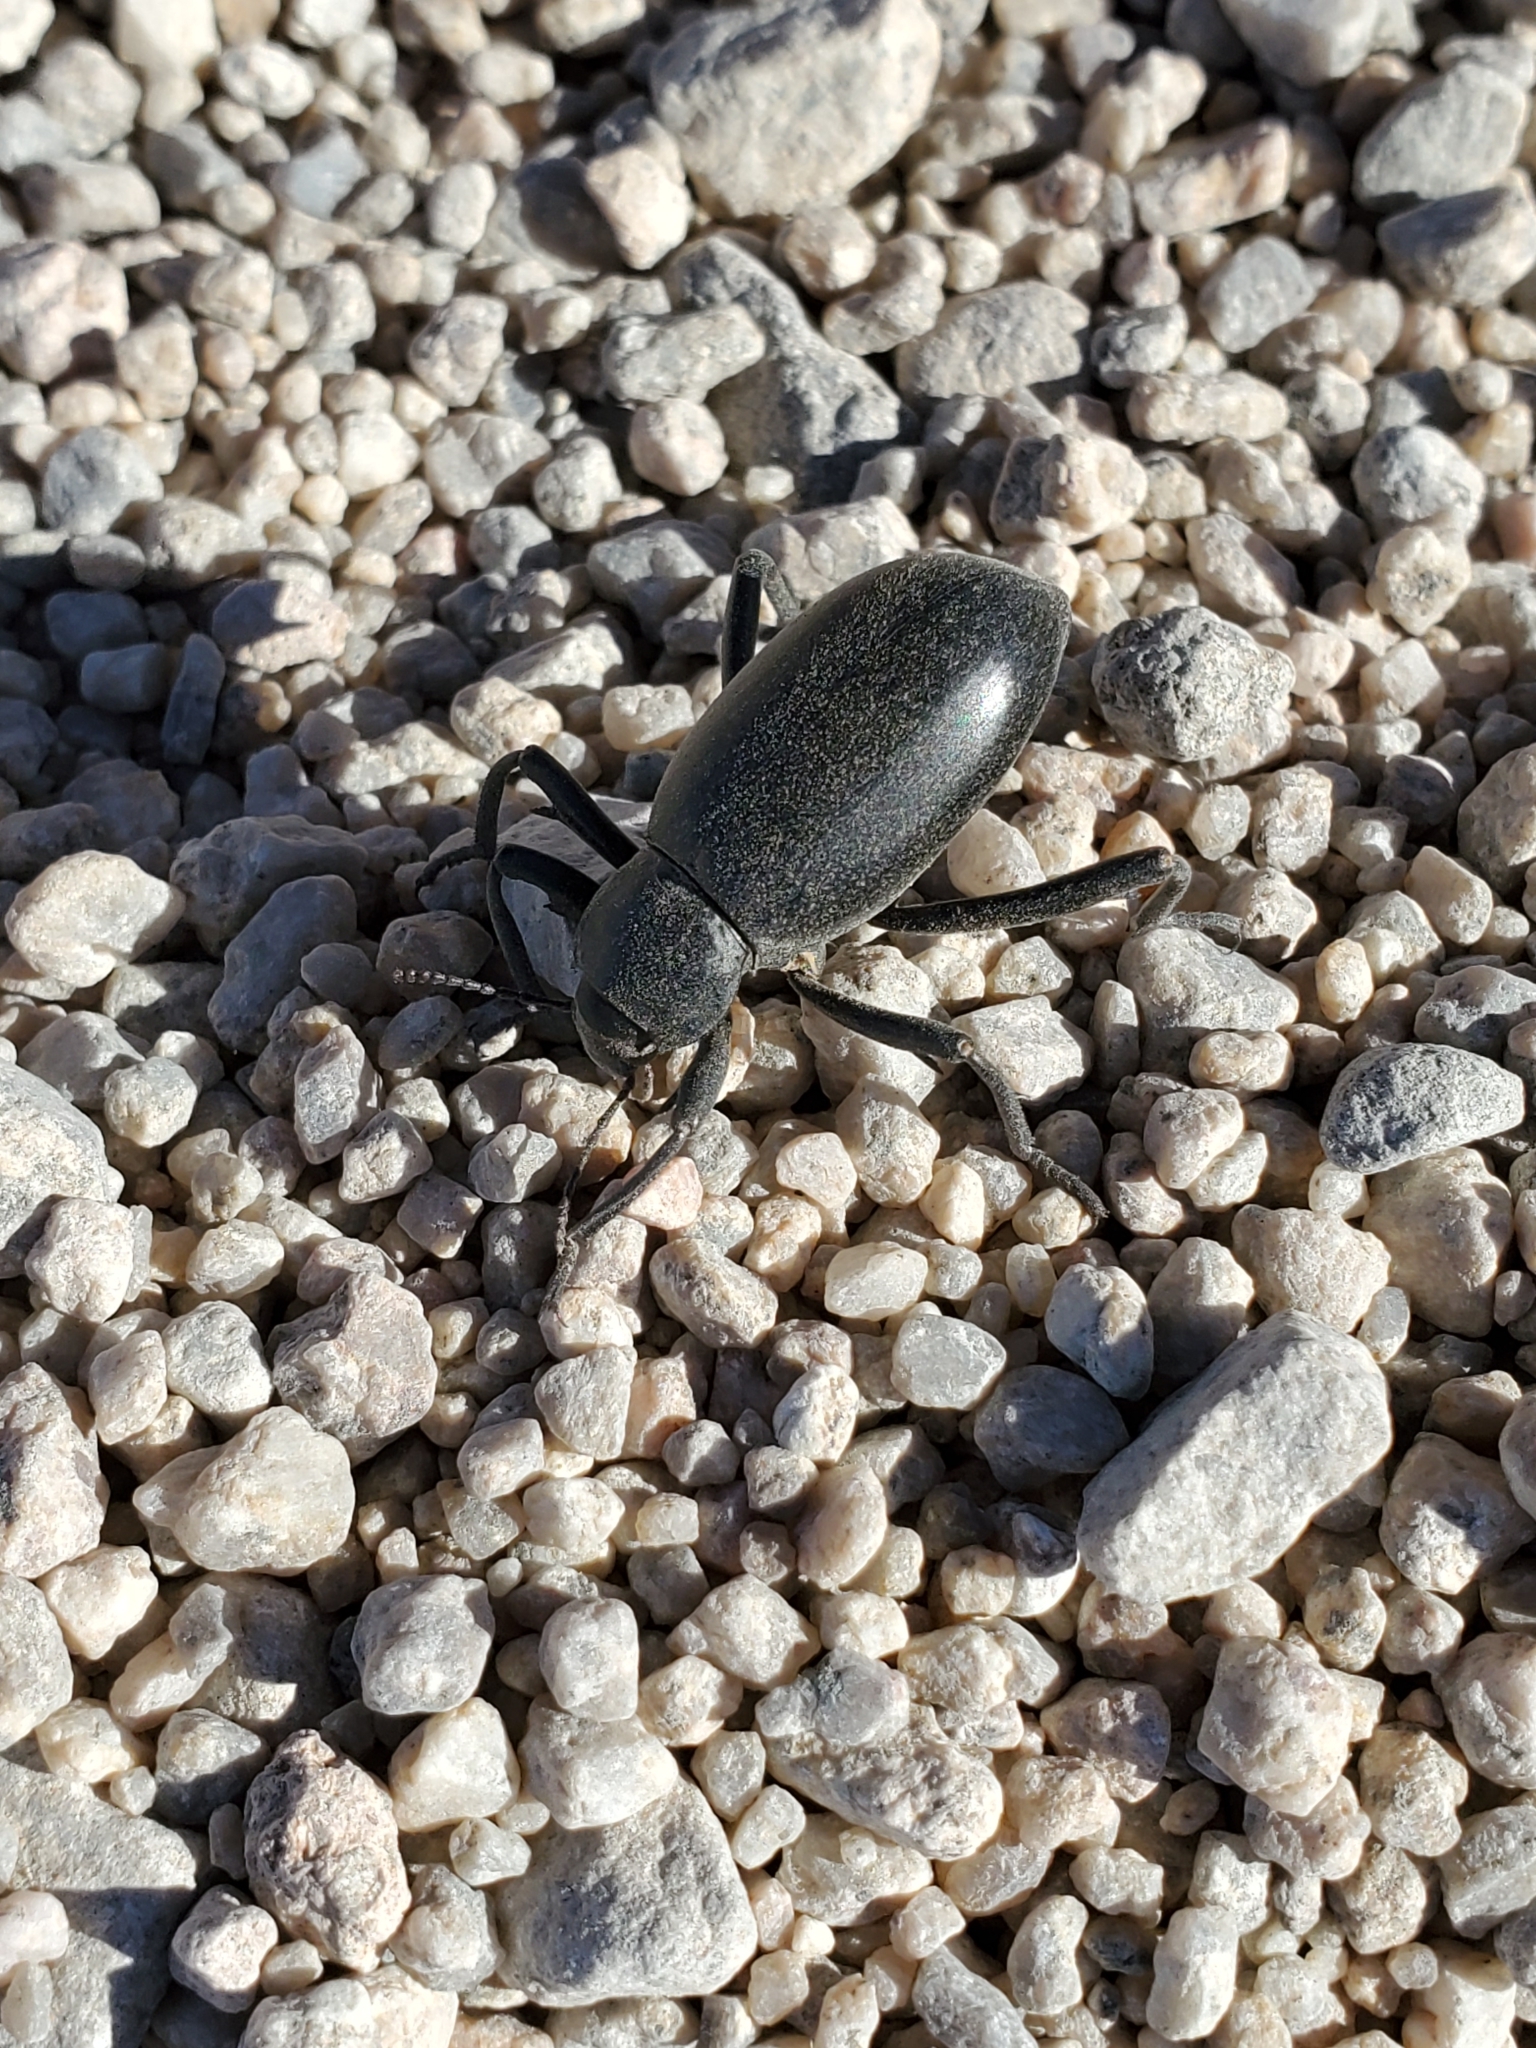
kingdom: Animalia
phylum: Arthropoda
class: Insecta
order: Coleoptera
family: Tenebrionidae
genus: Eleodes
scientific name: Eleodes armata
